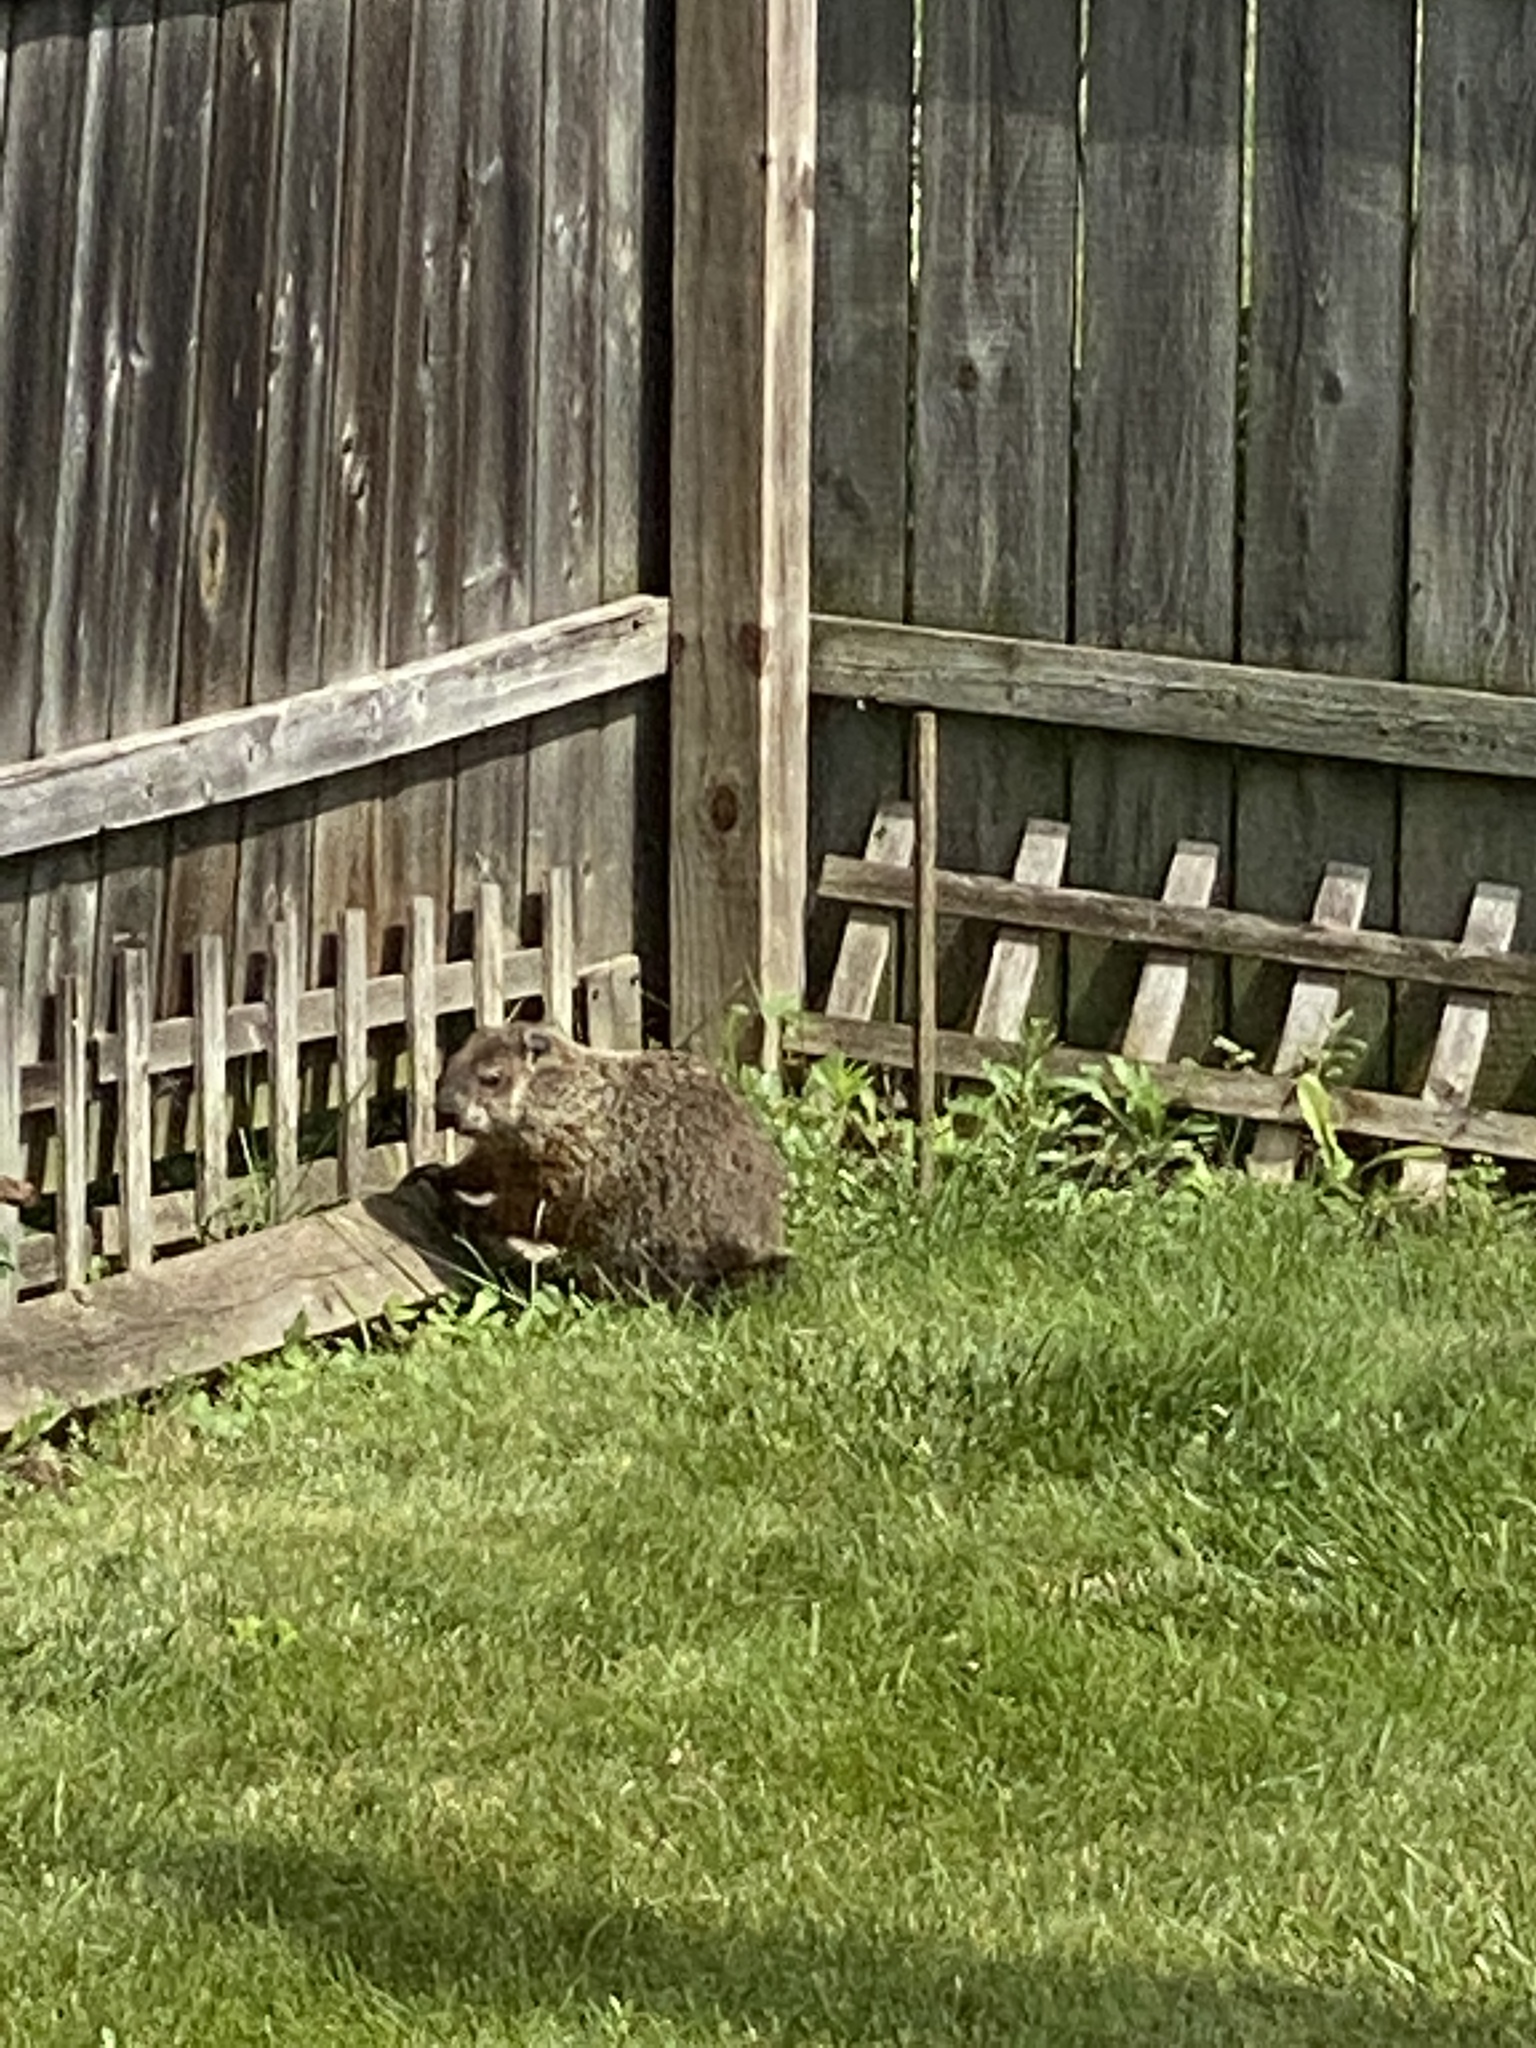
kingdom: Animalia
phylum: Chordata
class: Mammalia
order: Rodentia
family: Sciuridae
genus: Marmota
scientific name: Marmota monax
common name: Groundhog
